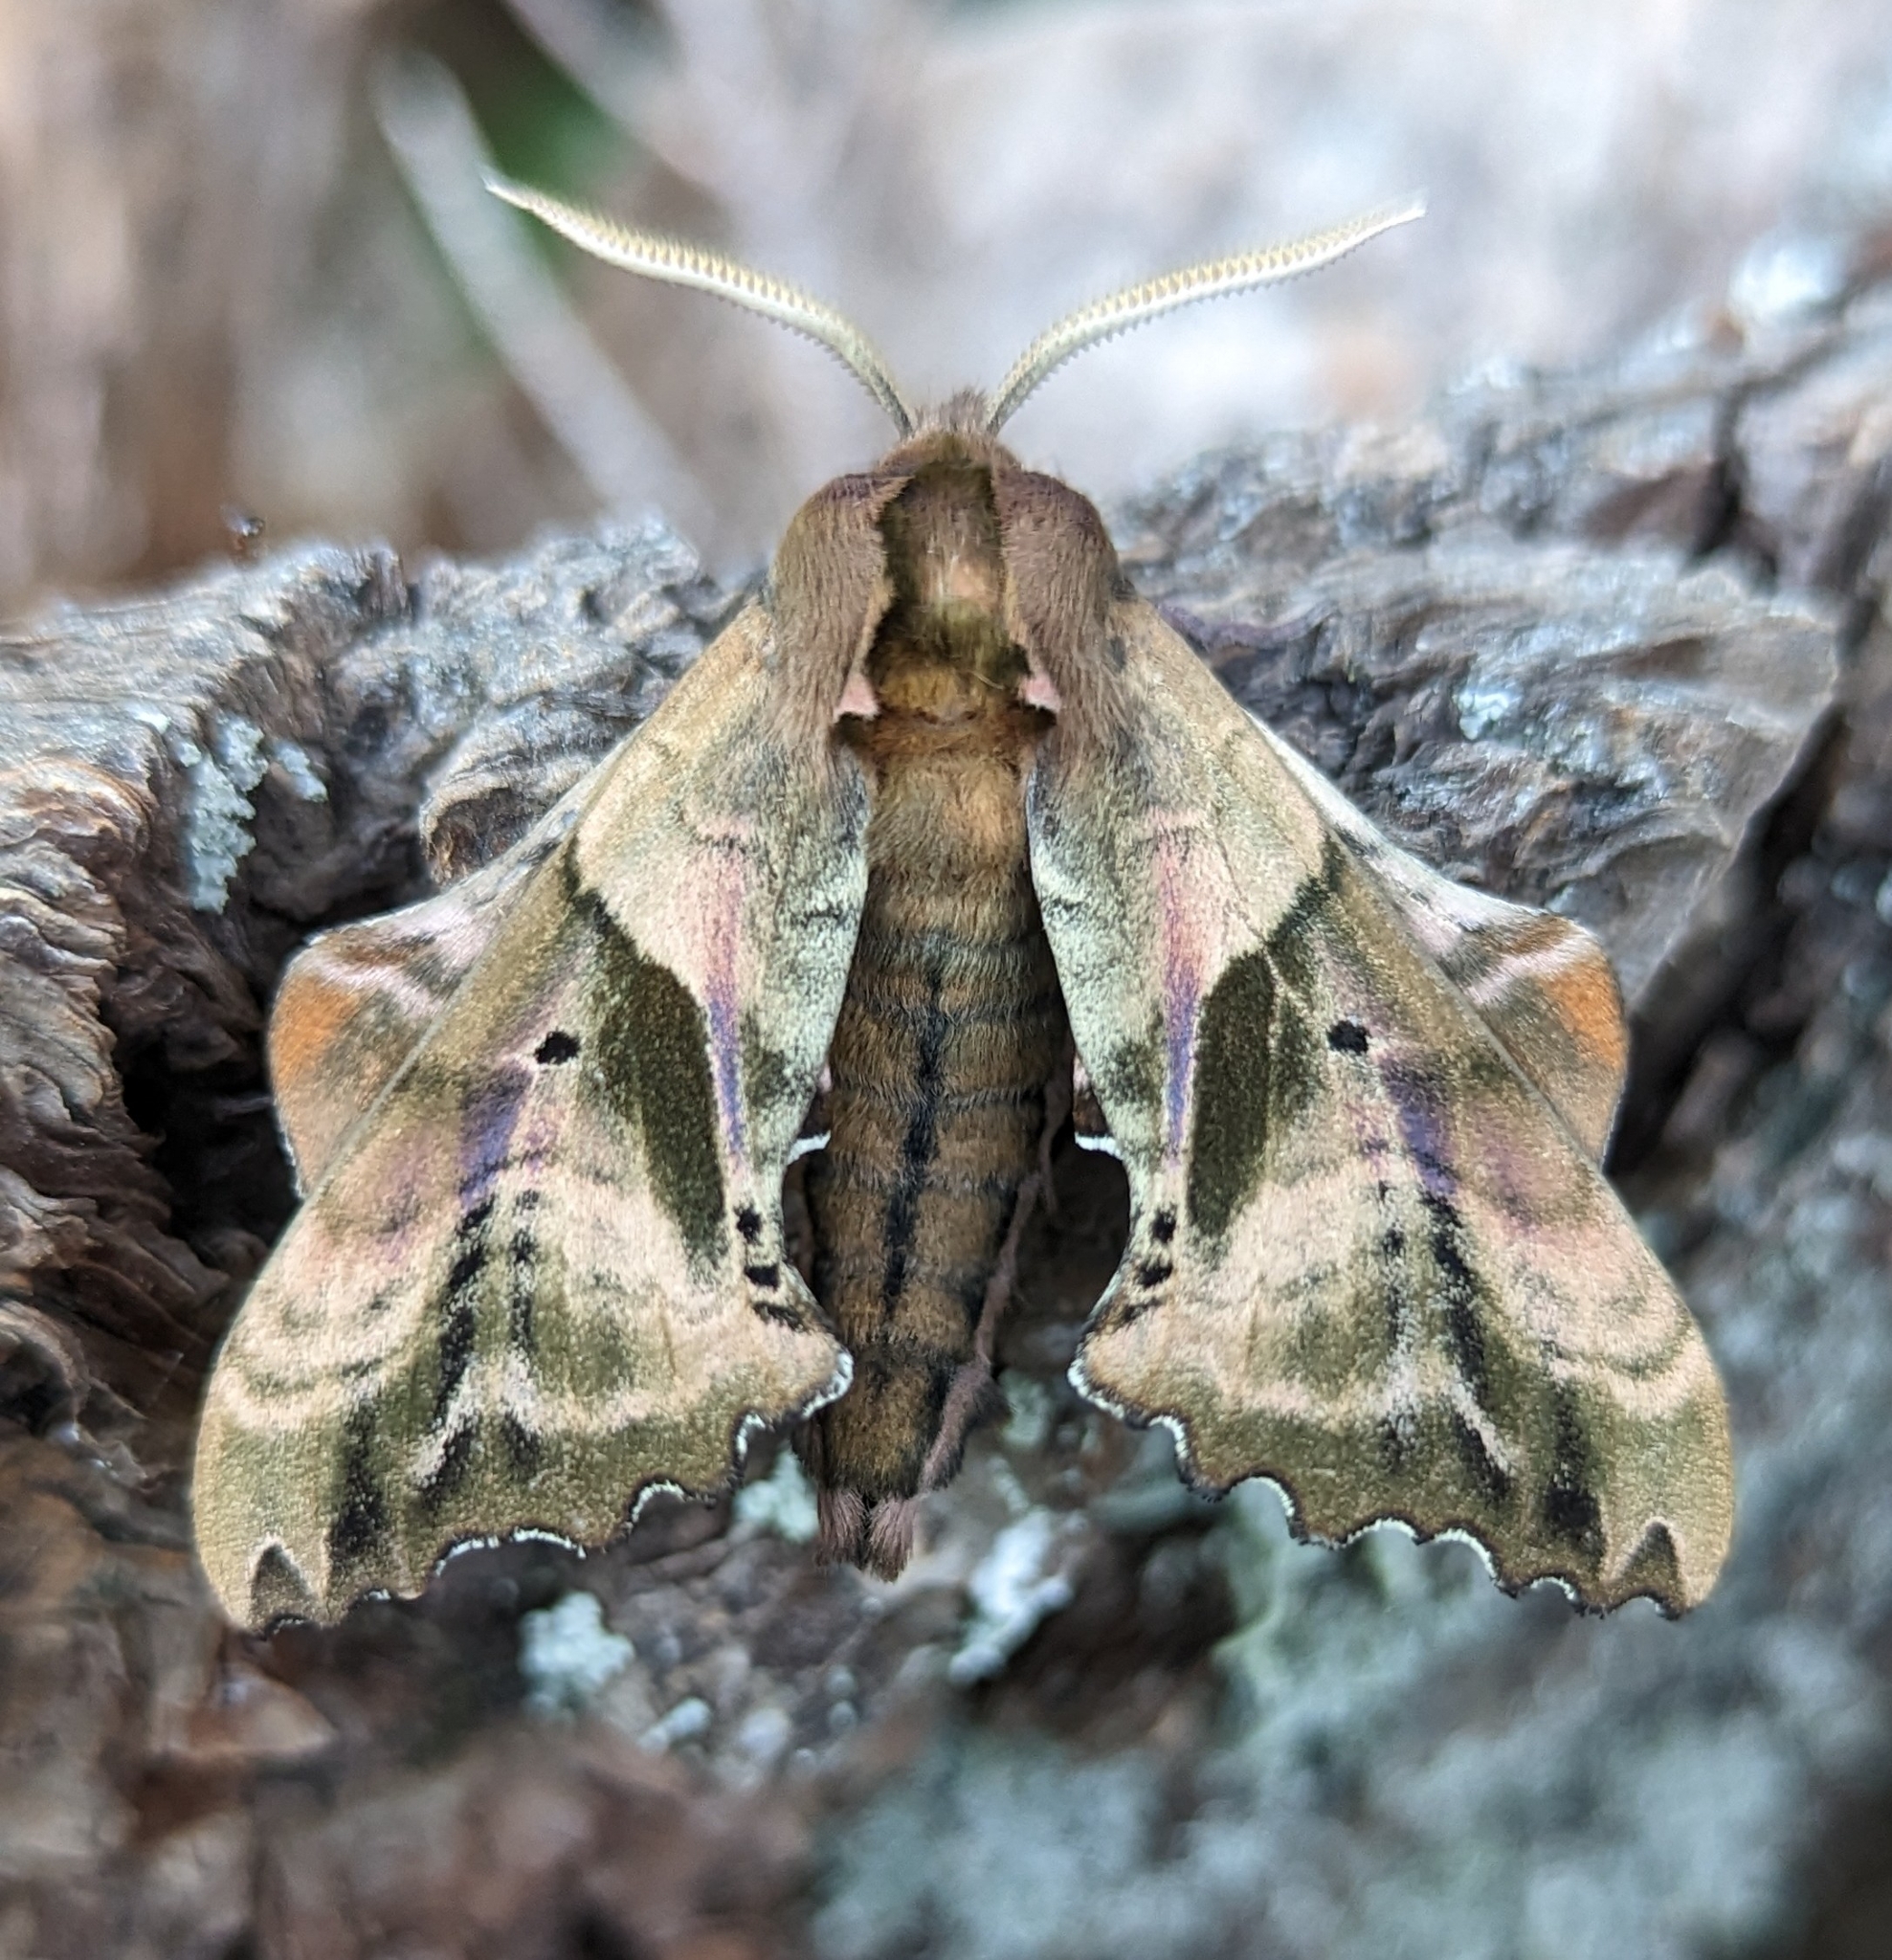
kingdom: Animalia
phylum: Arthropoda
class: Insecta
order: Lepidoptera
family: Sphingidae
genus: Paonias
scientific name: Paonias excaecata
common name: Blind-eyed sphinx
